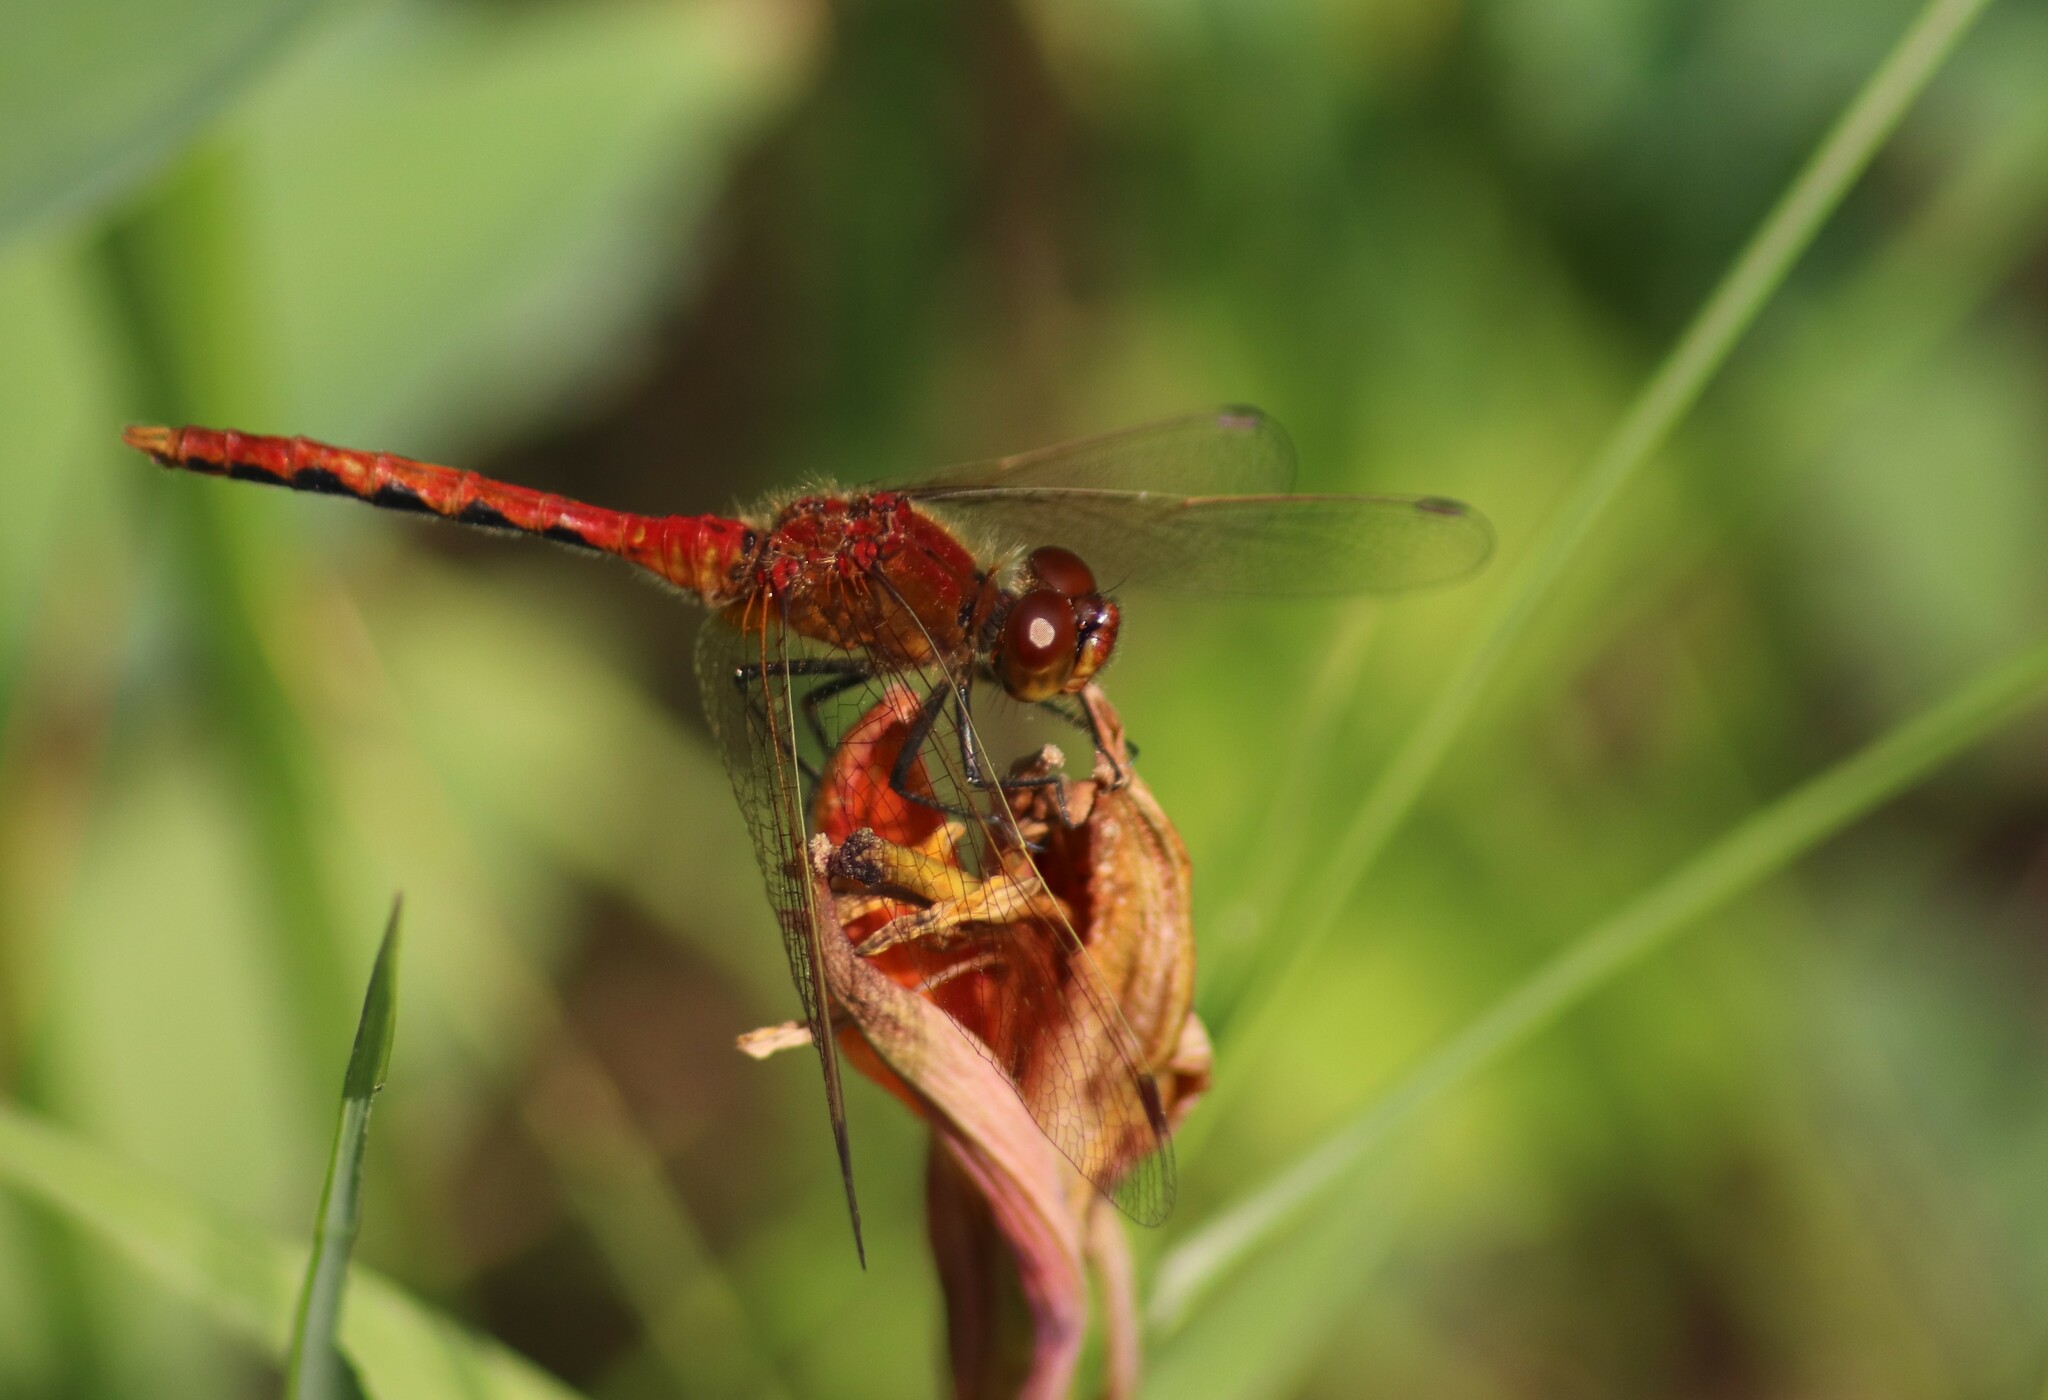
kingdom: Animalia
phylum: Arthropoda
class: Insecta
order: Odonata
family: Libellulidae
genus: Sympetrum
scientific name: Sympetrum internum
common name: Cherry-faced meadowhawk
